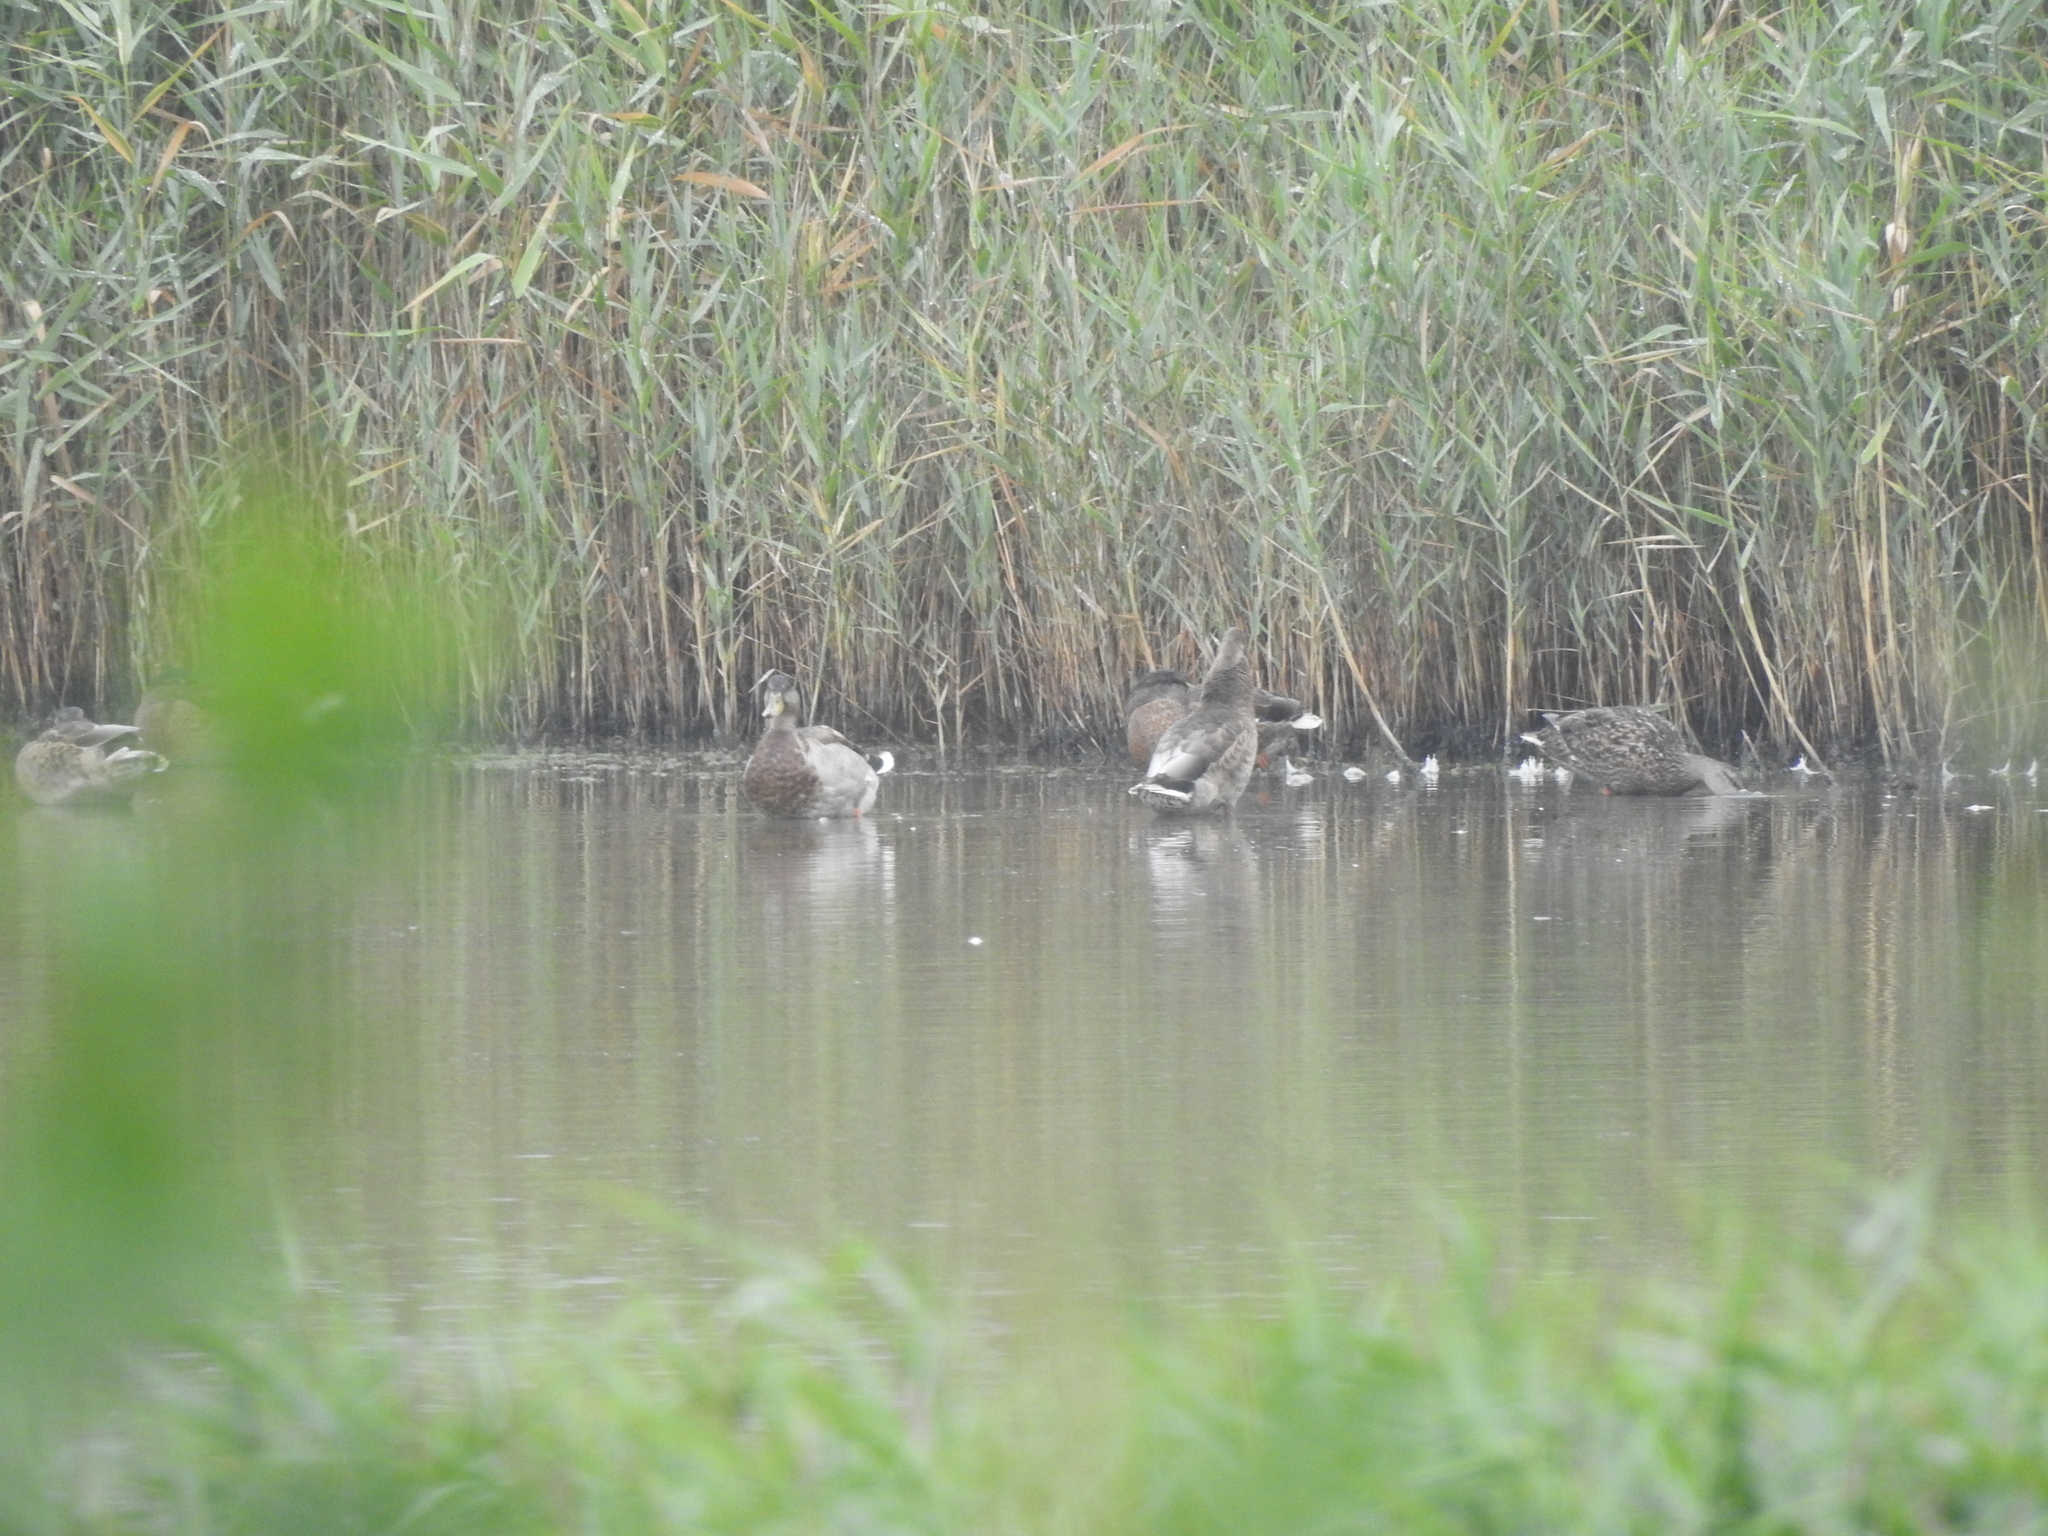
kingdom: Animalia
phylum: Chordata
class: Aves
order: Anseriformes
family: Anatidae
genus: Anas
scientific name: Anas platyrhynchos
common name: Mallard
